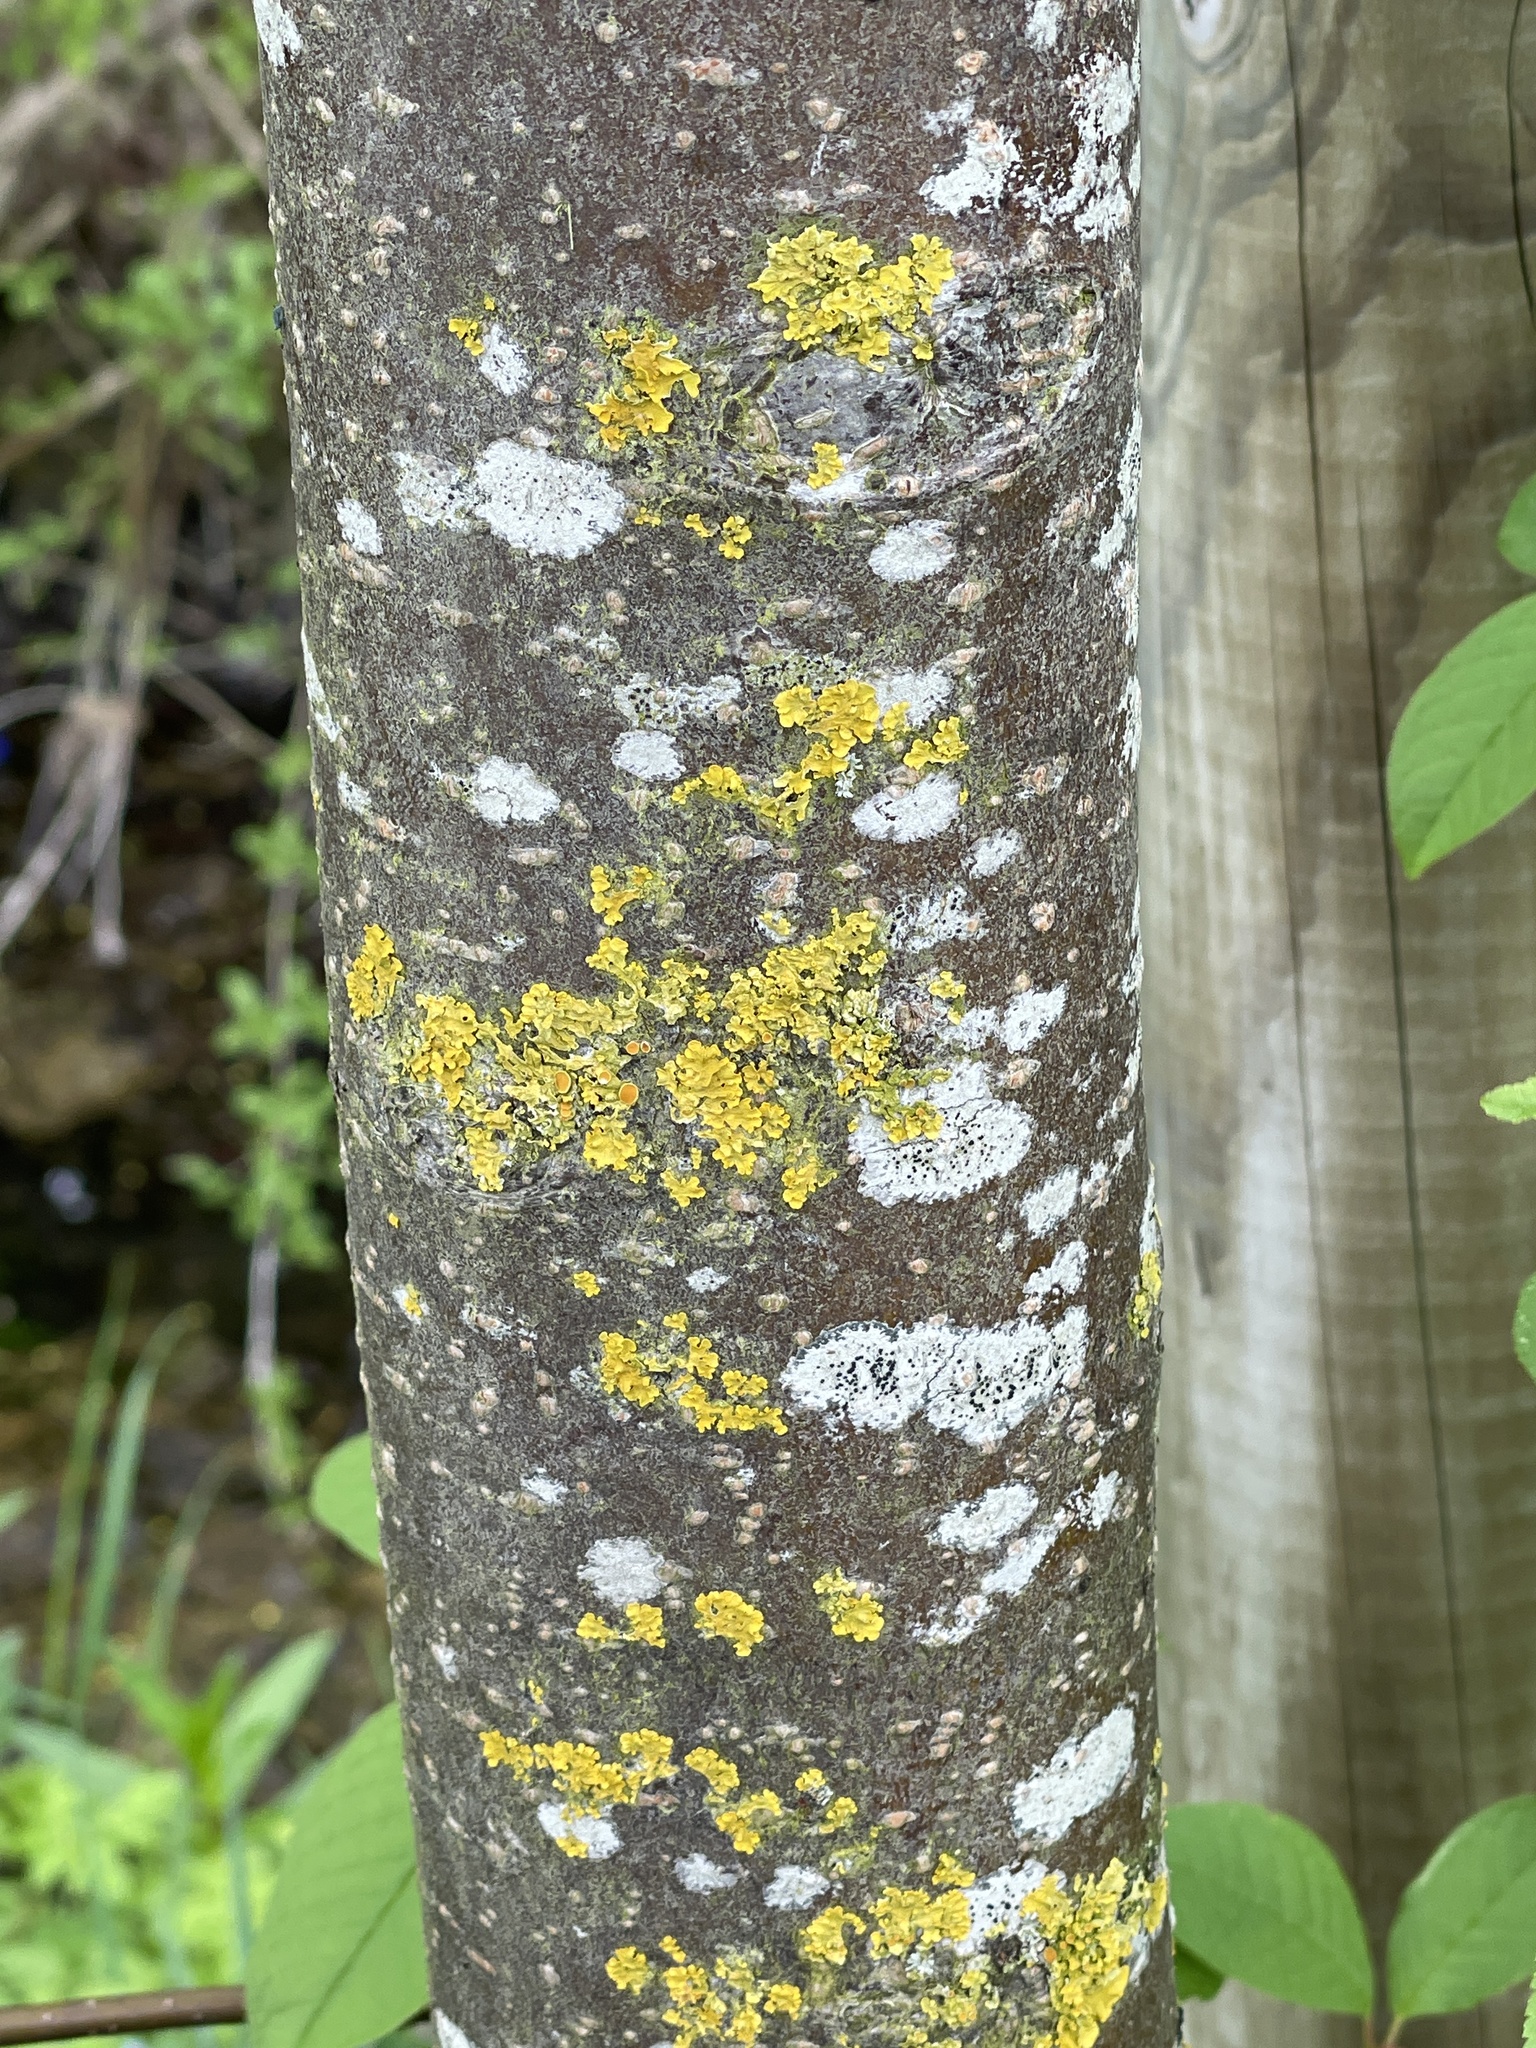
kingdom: Plantae
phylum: Tracheophyta
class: Magnoliopsida
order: Rosales
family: Rosaceae
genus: Prunus
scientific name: Prunus padus
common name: Bird cherry
